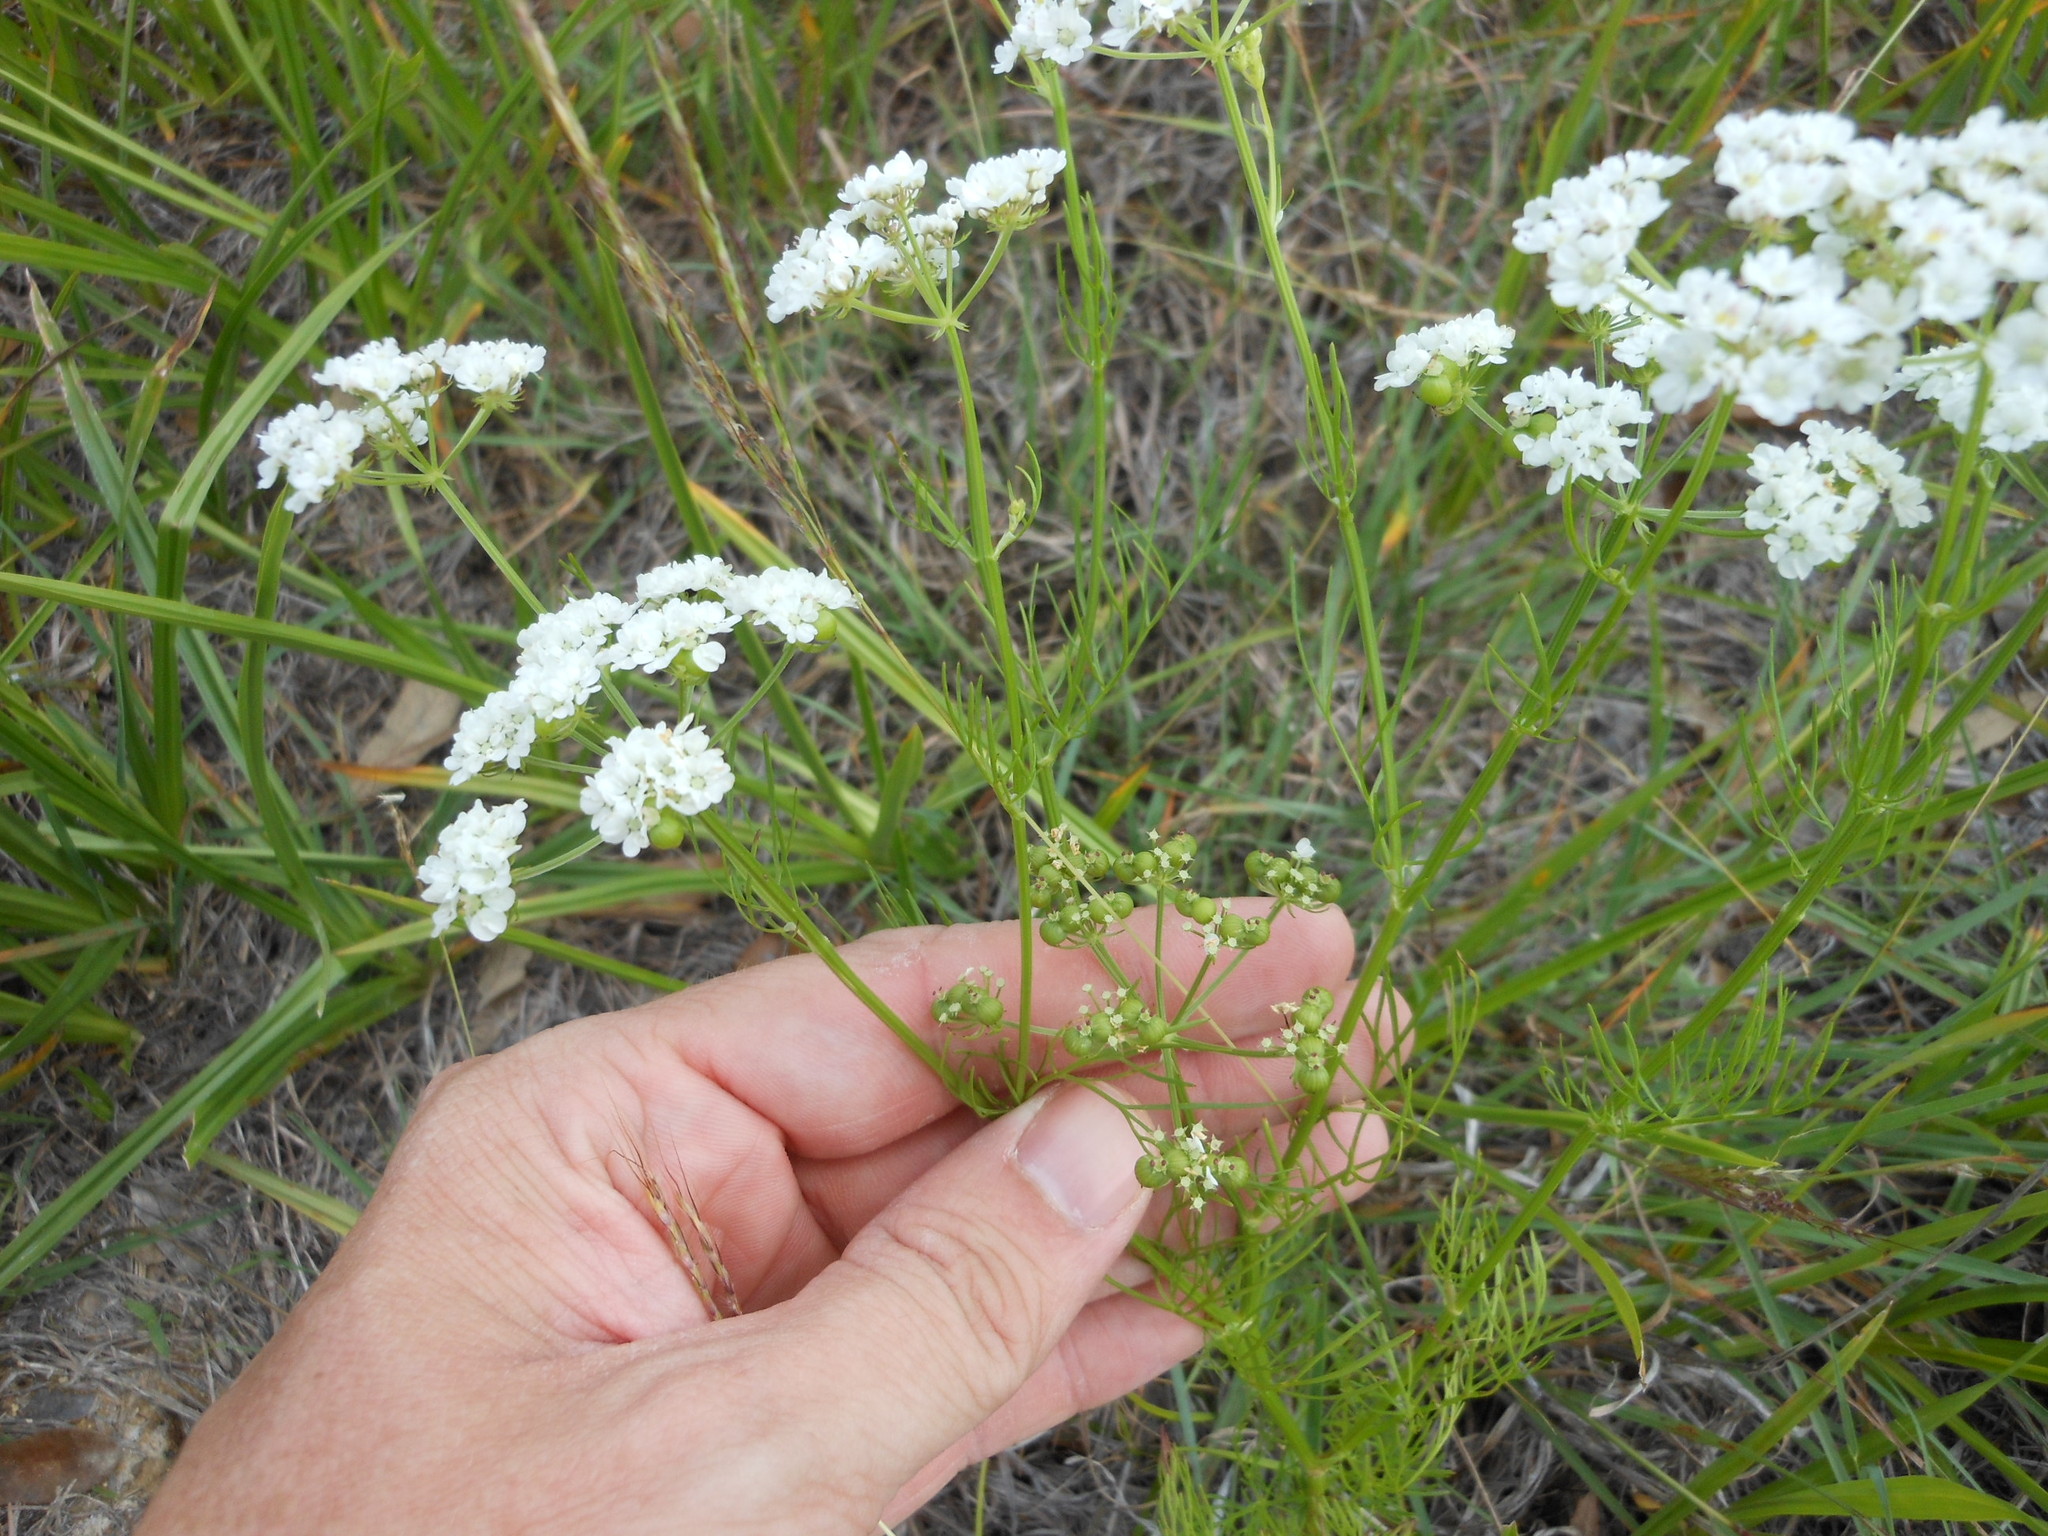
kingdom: Plantae
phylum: Tracheophyta
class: Magnoliopsida
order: Apiales
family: Apiaceae
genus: Atrema
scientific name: Atrema americanum
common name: Prairie-bishop
